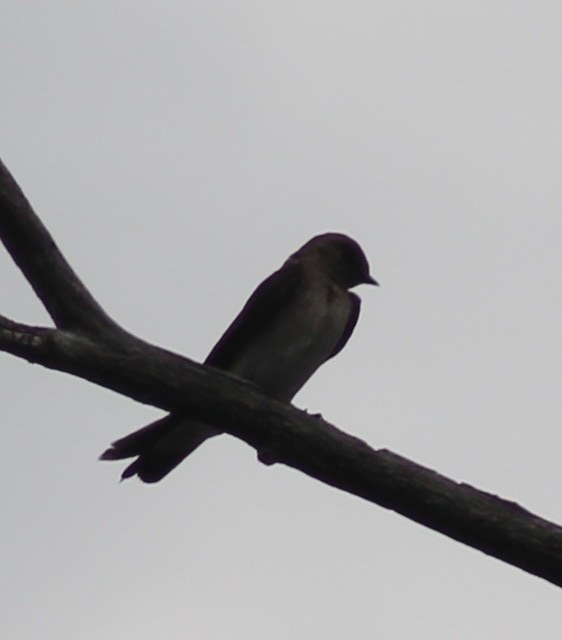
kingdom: Animalia
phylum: Chordata
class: Aves
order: Passeriformes
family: Hirundinidae
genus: Stelgidopteryx
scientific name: Stelgidopteryx serripennis
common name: Northern rough-winged swallow
